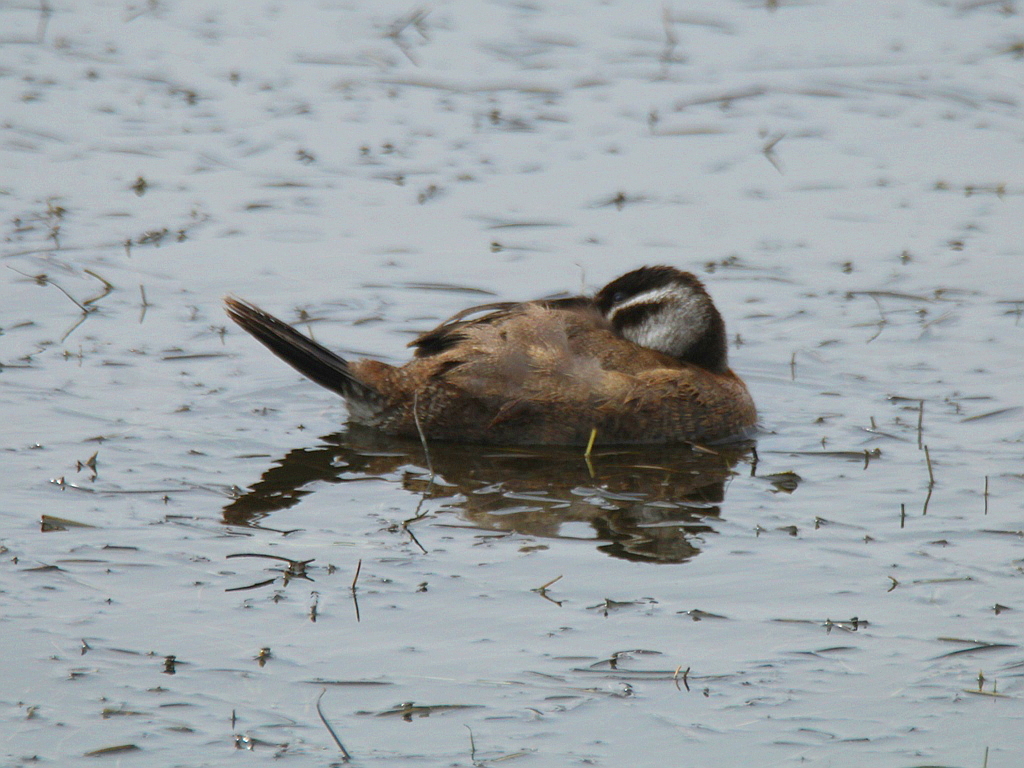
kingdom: Animalia
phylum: Chordata
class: Aves
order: Anseriformes
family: Anatidae
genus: Oxyura
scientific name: Oxyura leucocephala
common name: White-headed duck
